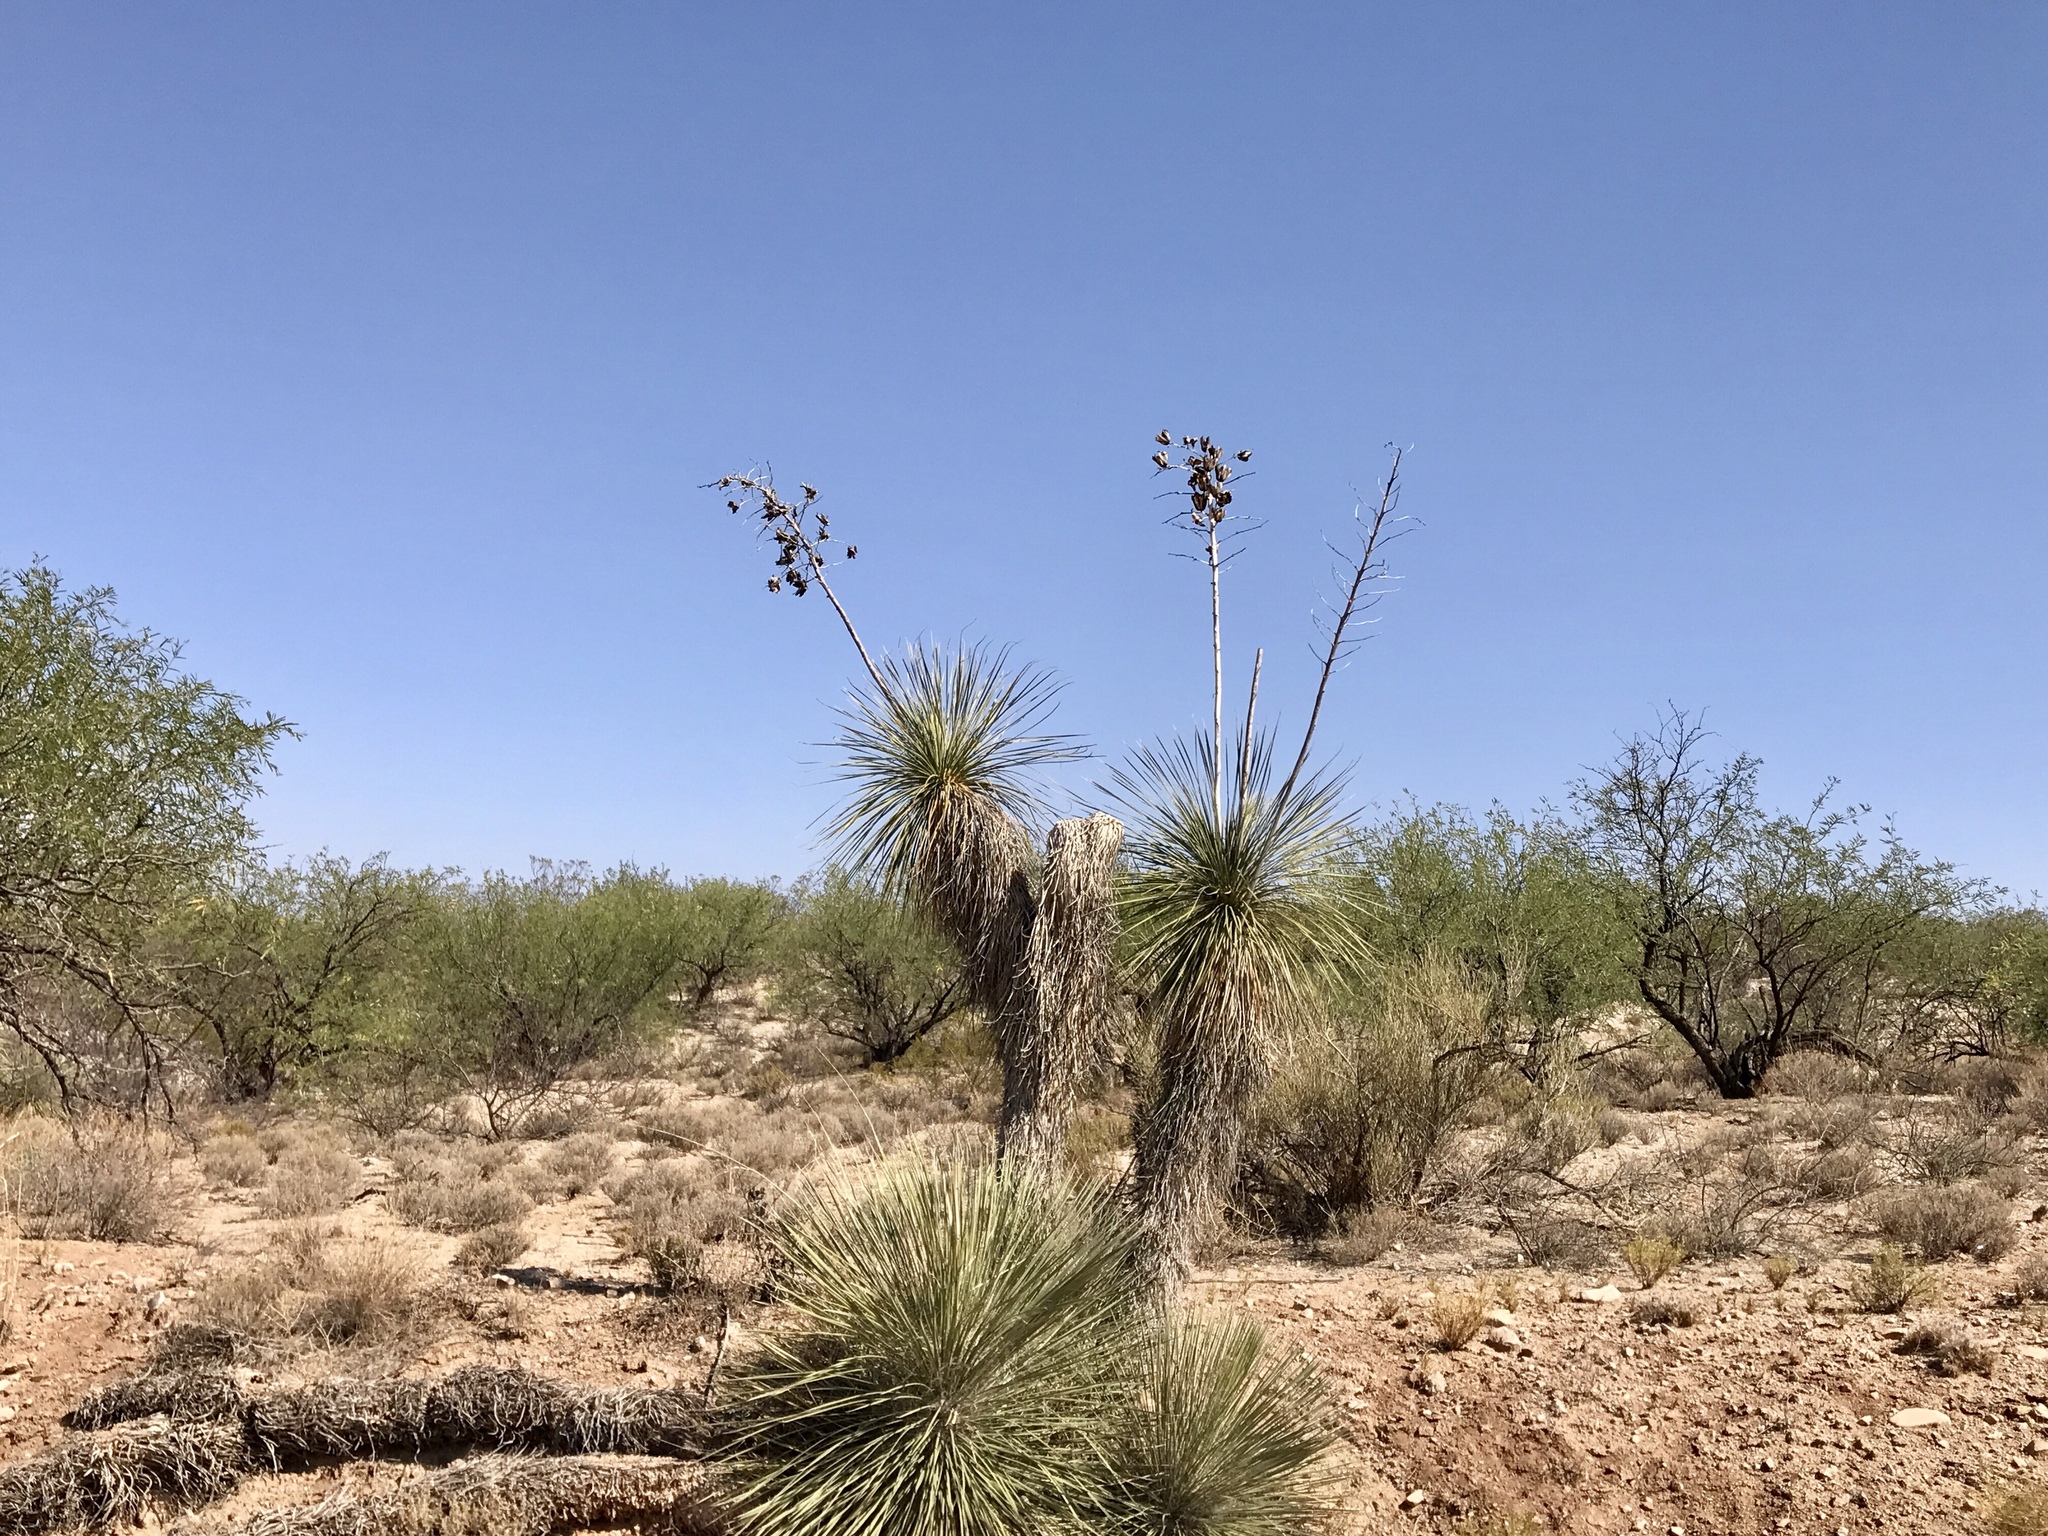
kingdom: Plantae
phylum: Tracheophyta
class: Liliopsida
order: Asparagales
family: Asparagaceae
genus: Yucca
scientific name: Yucca elata
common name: Palmella
